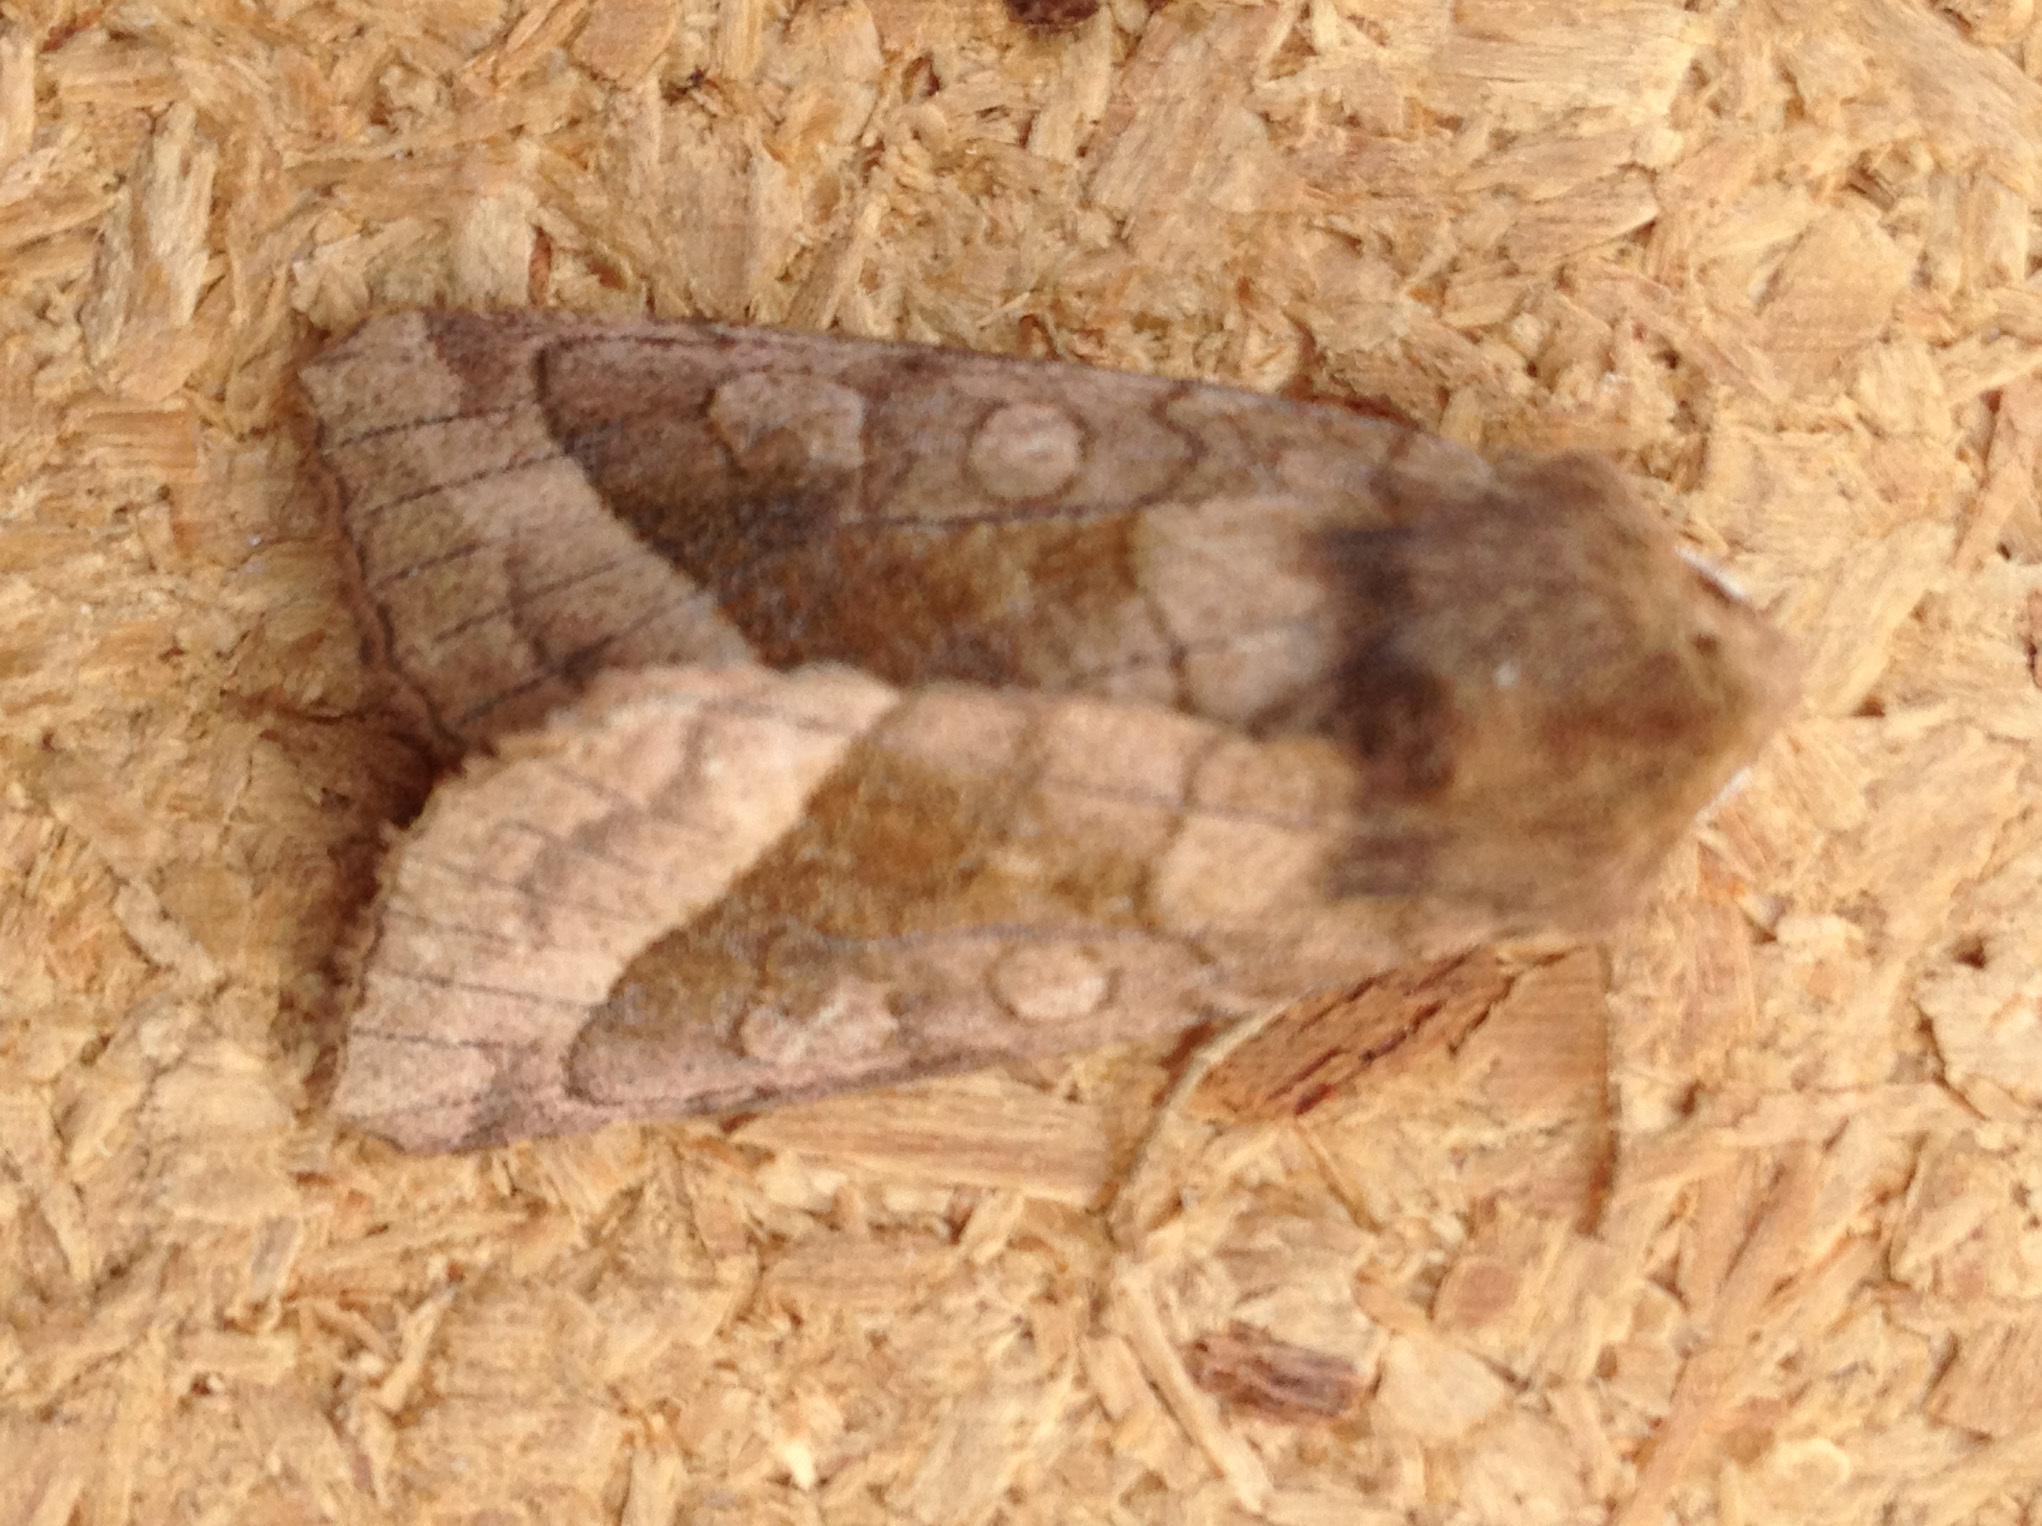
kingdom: Animalia
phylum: Arthropoda
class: Insecta
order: Lepidoptera
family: Noctuidae
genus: Hydraecia
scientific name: Hydraecia micacea
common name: Rosy rustic
